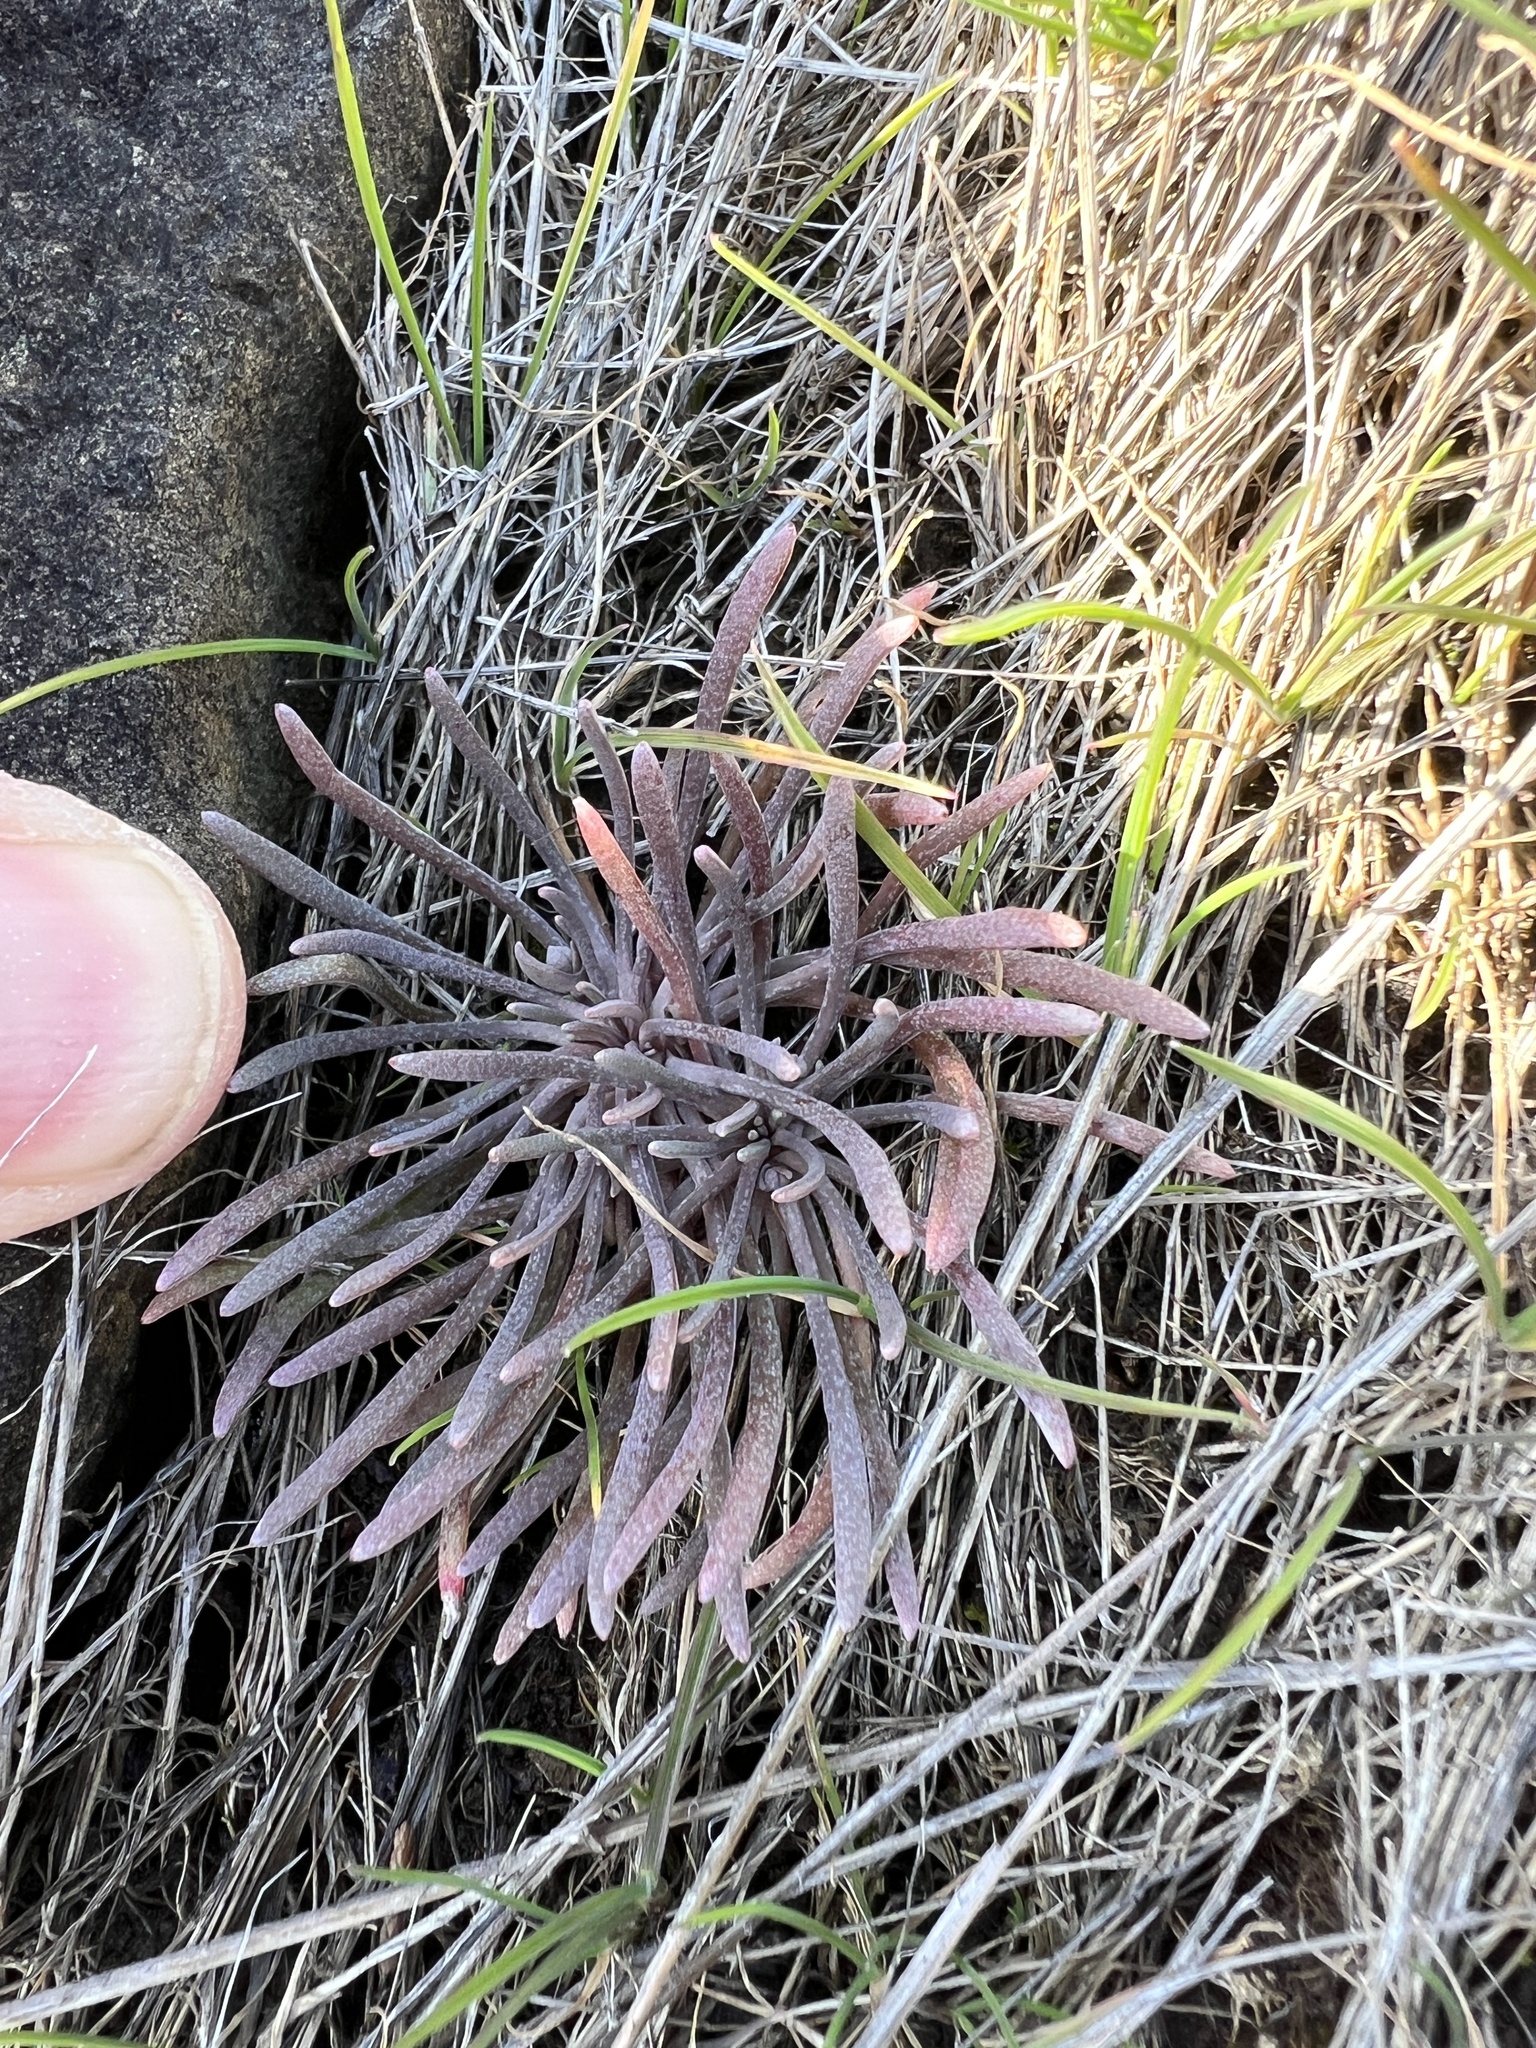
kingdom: Plantae
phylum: Tracheophyta
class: Magnoliopsida
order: Caryophyllales
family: Montiaceae
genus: Claytonia
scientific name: Claytonia exigua
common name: Pale spring beauty
